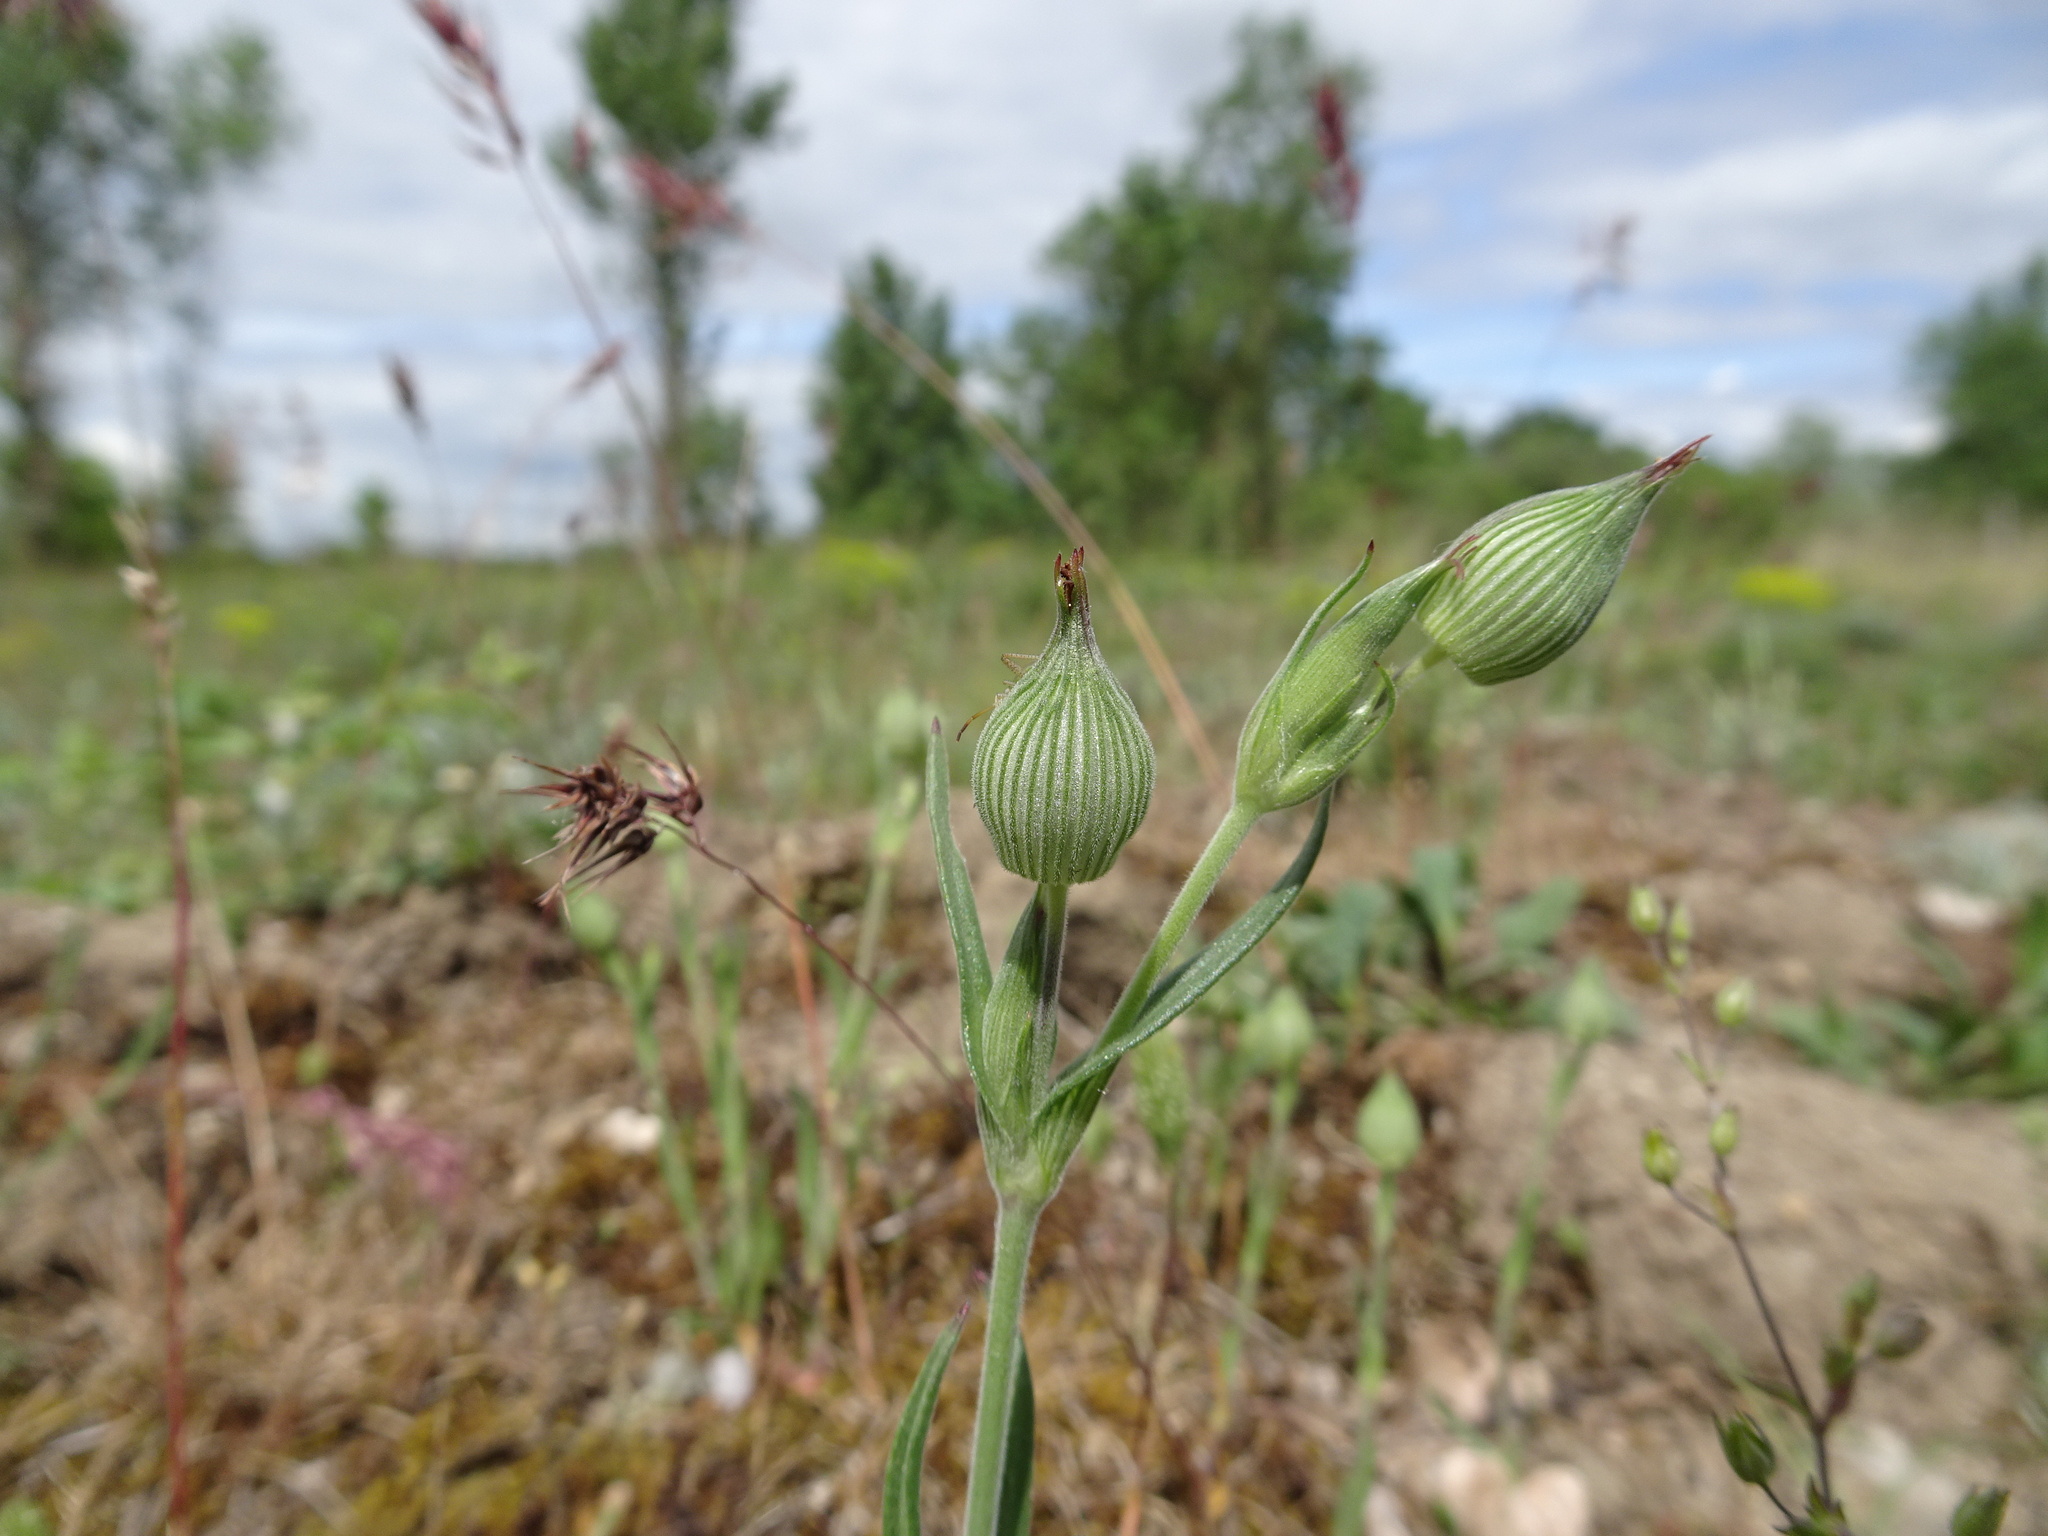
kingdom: Plantae
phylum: Tracheophyta
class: Magnoliopsida
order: Caryophyllales
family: Caryophyllaceae
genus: Silene
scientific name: Silene conica
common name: Sand catchfly
